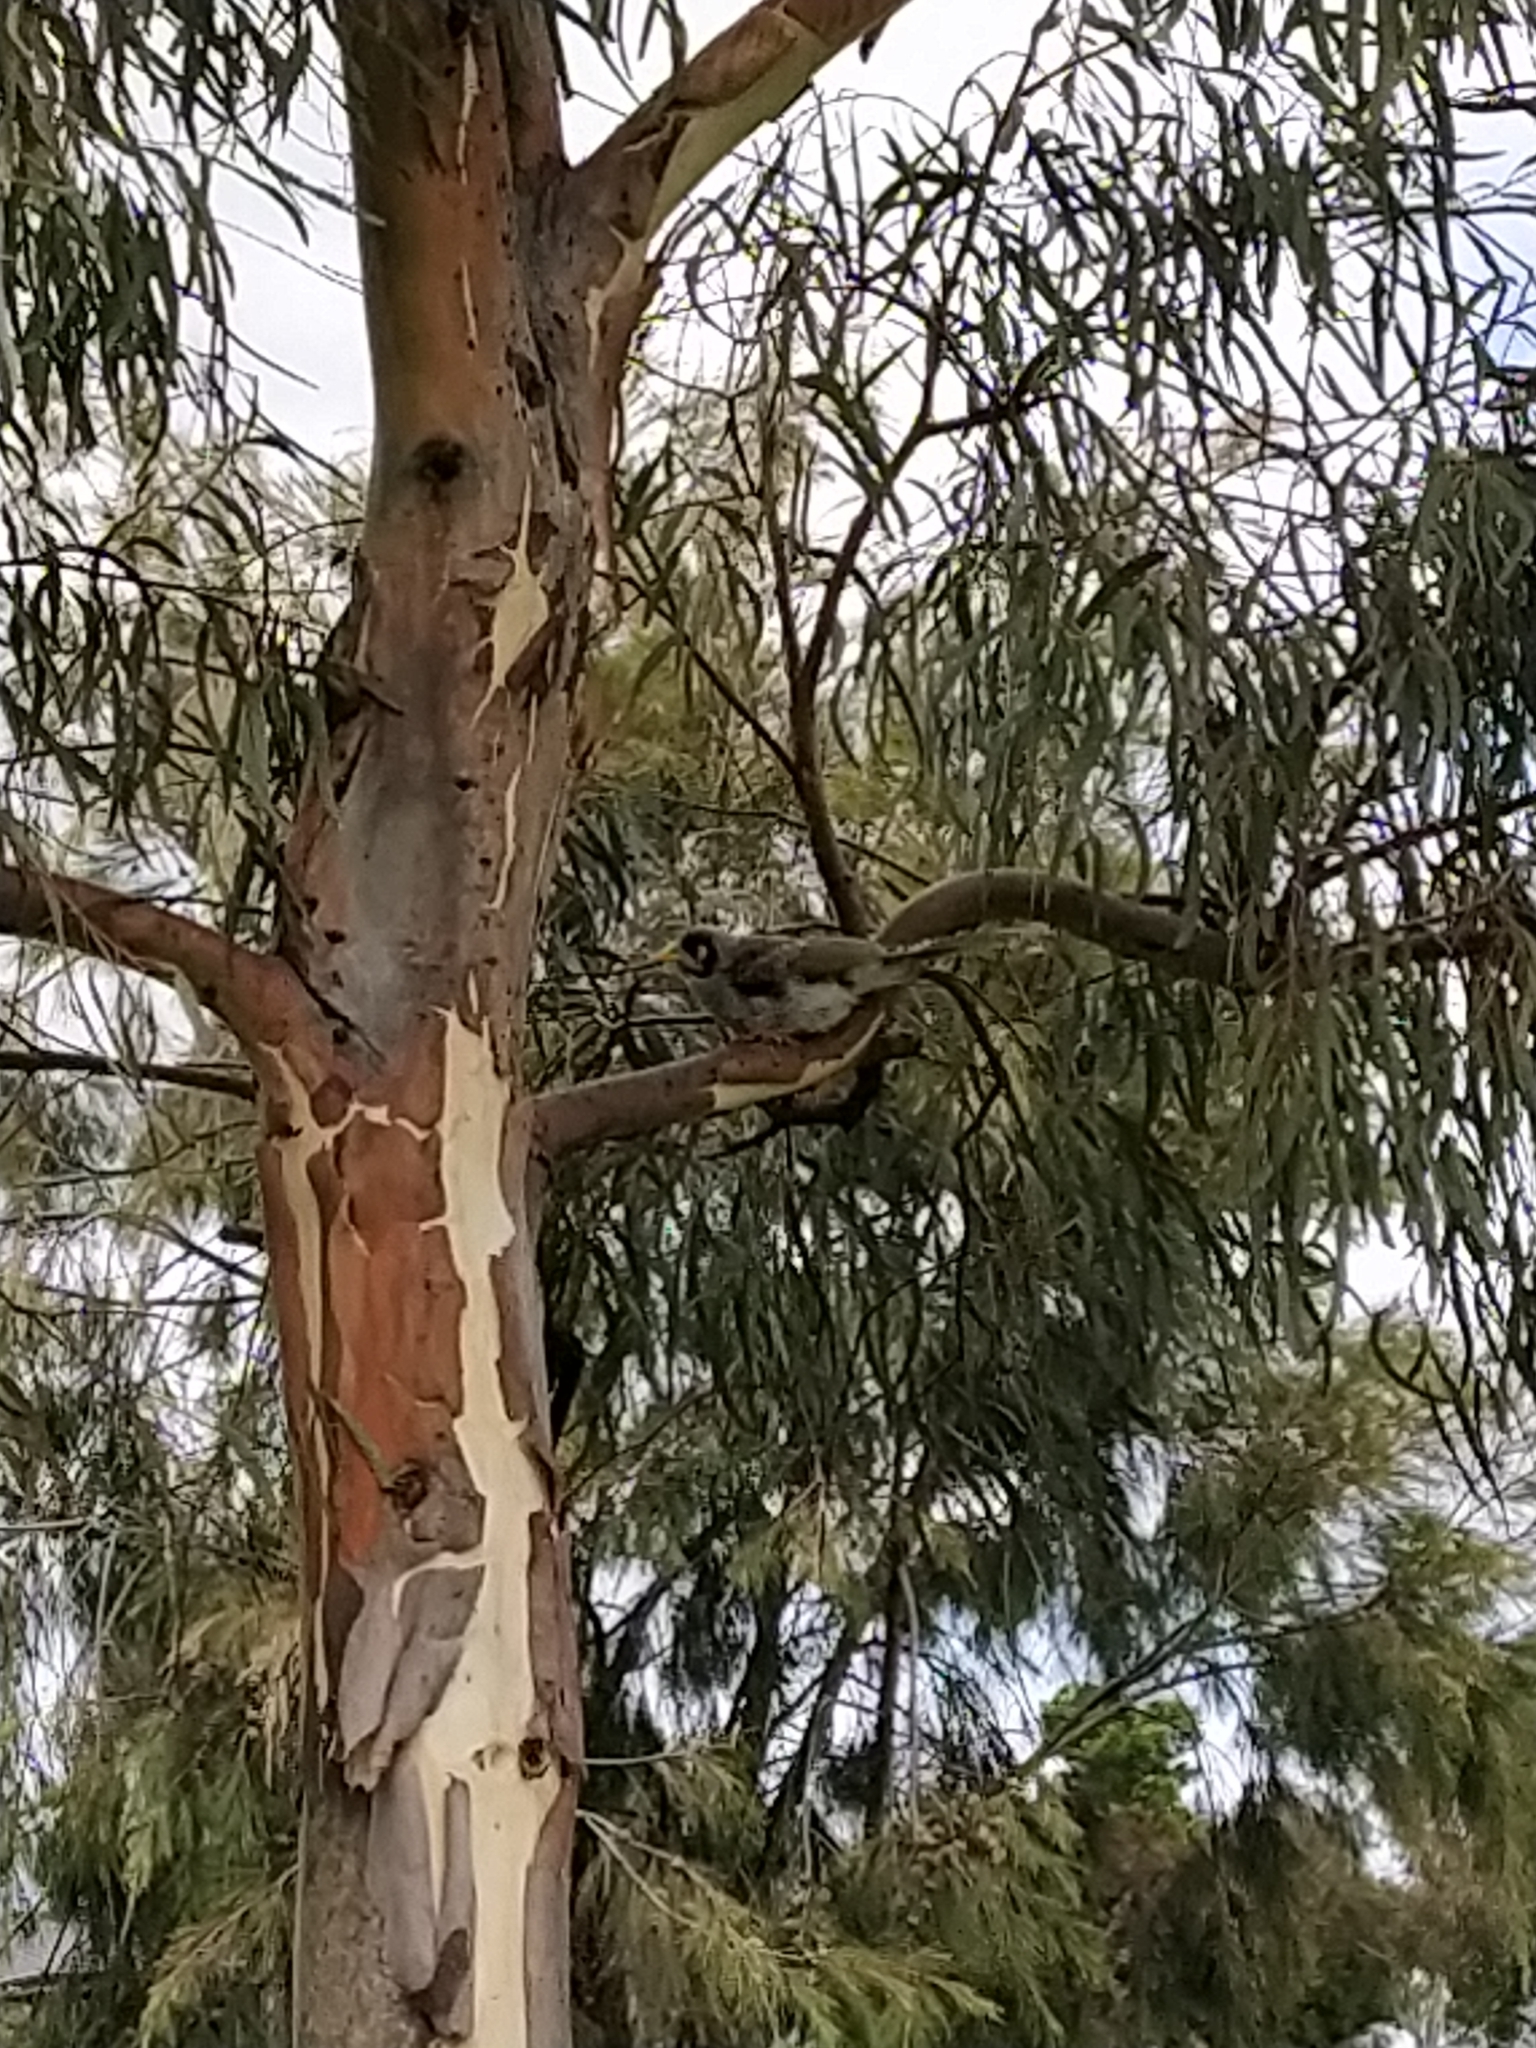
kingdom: Animalia
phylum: Chordata
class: Aves
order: Passeriformes
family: Meliphagidae
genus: Manorina
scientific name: Manorina melanocephala
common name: Noisy miner
